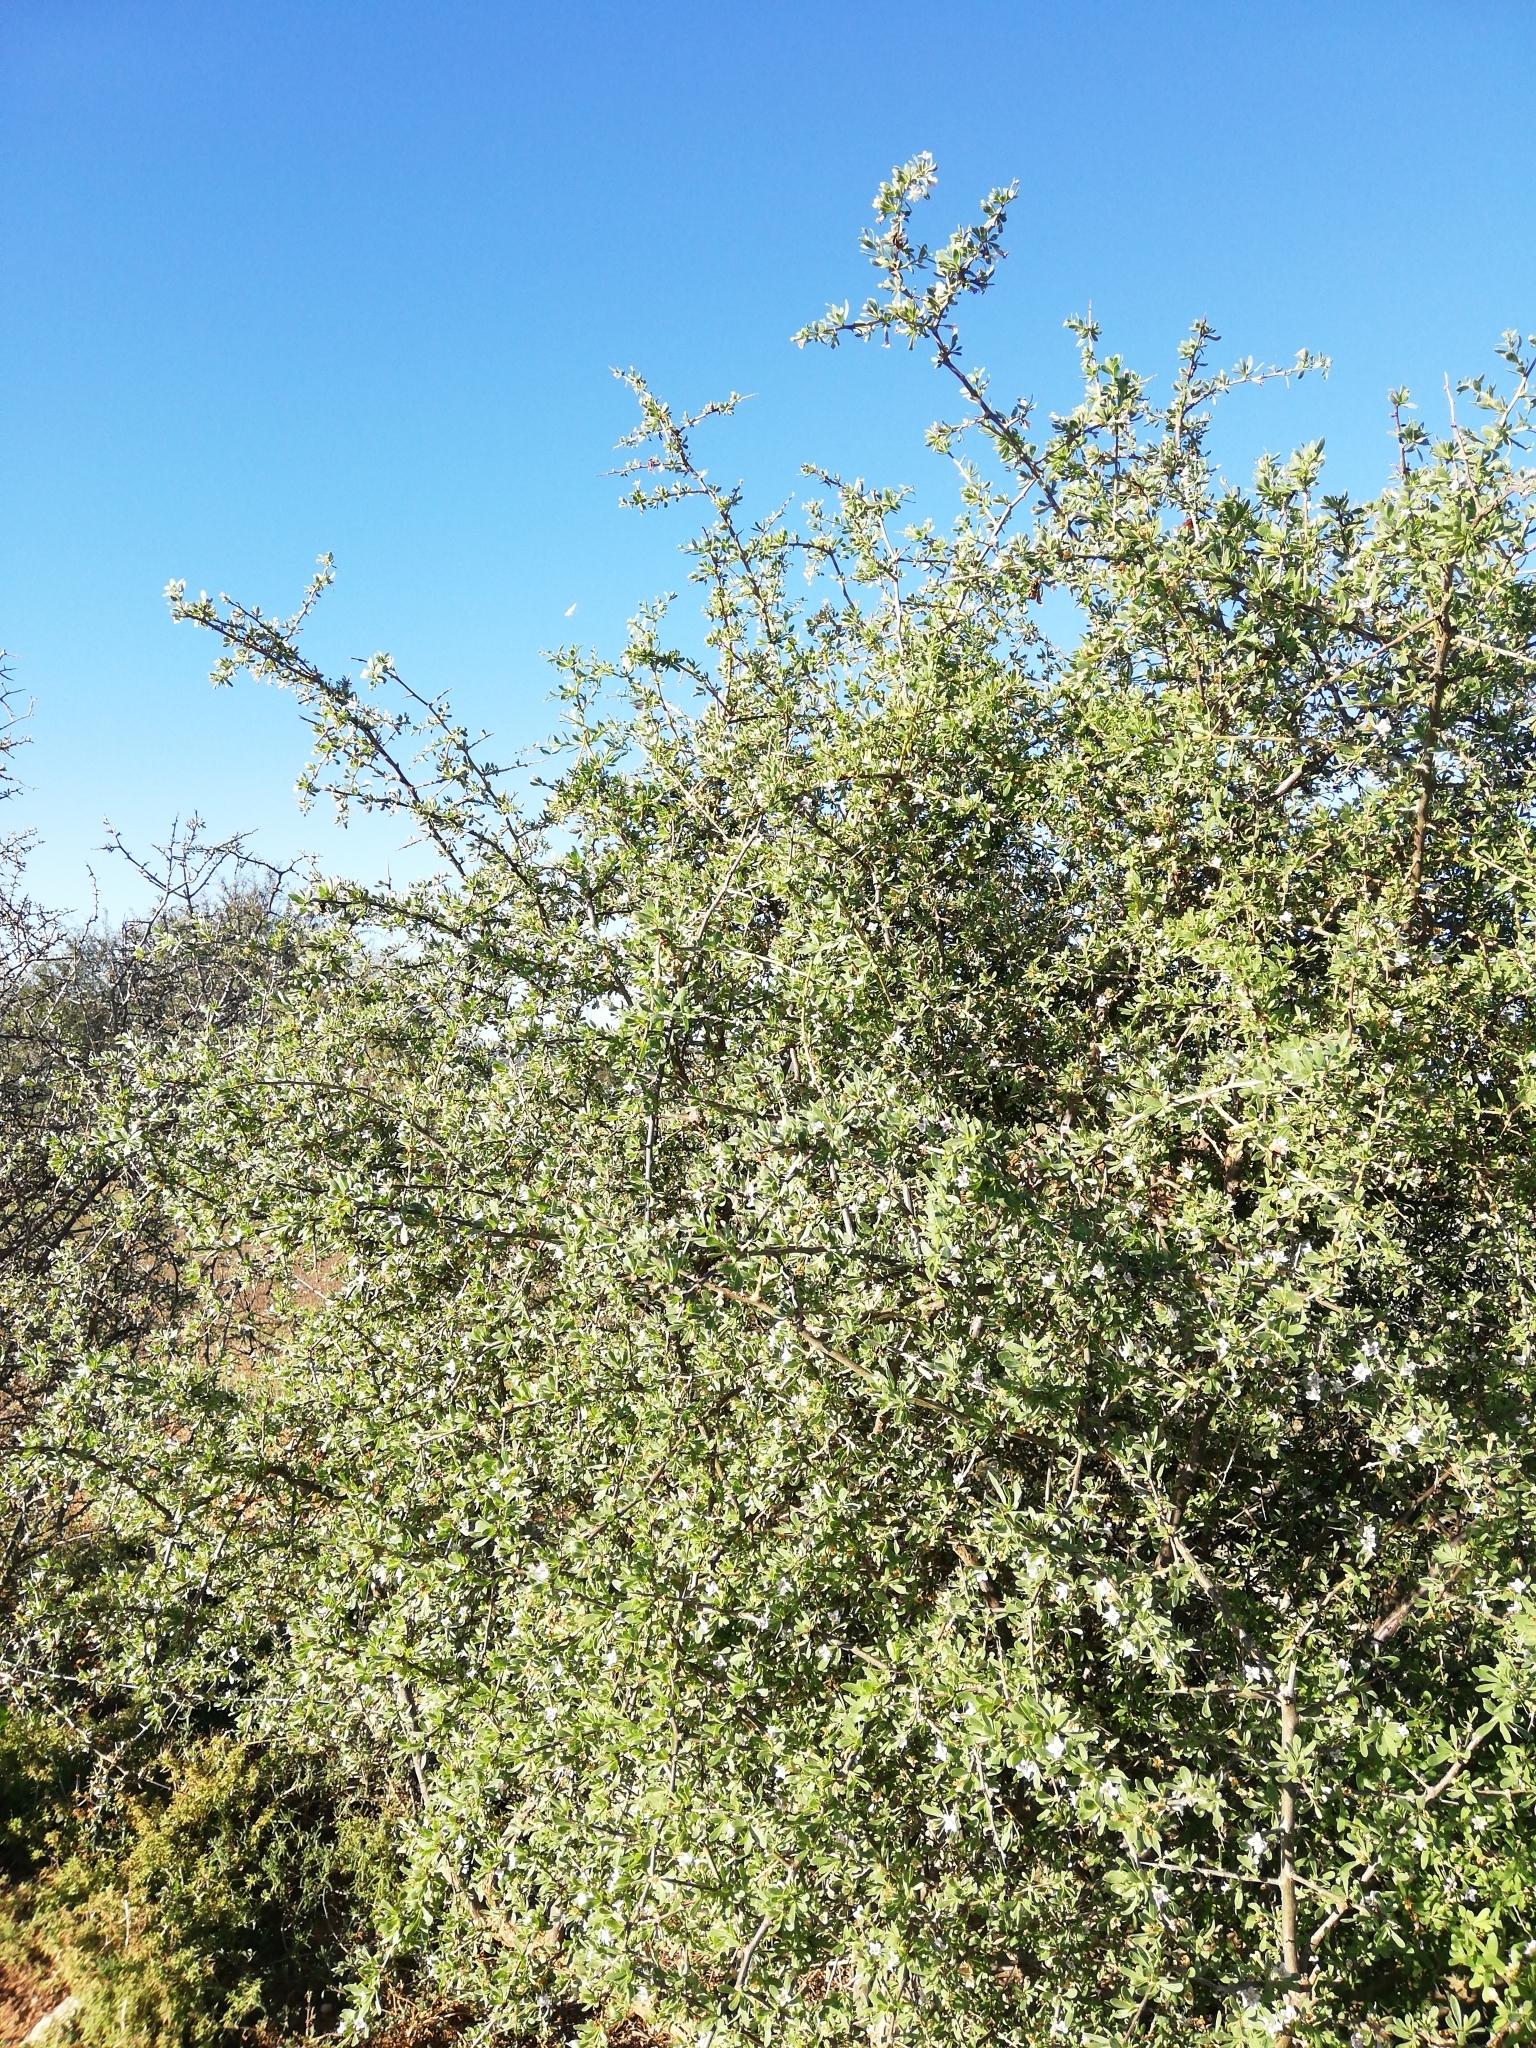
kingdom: Plantae
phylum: Tracheophyta
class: Magnoliopsida
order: Solanales
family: Solanaceae
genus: Lycium
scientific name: Lycium ferocissimum
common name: African boxthorn
